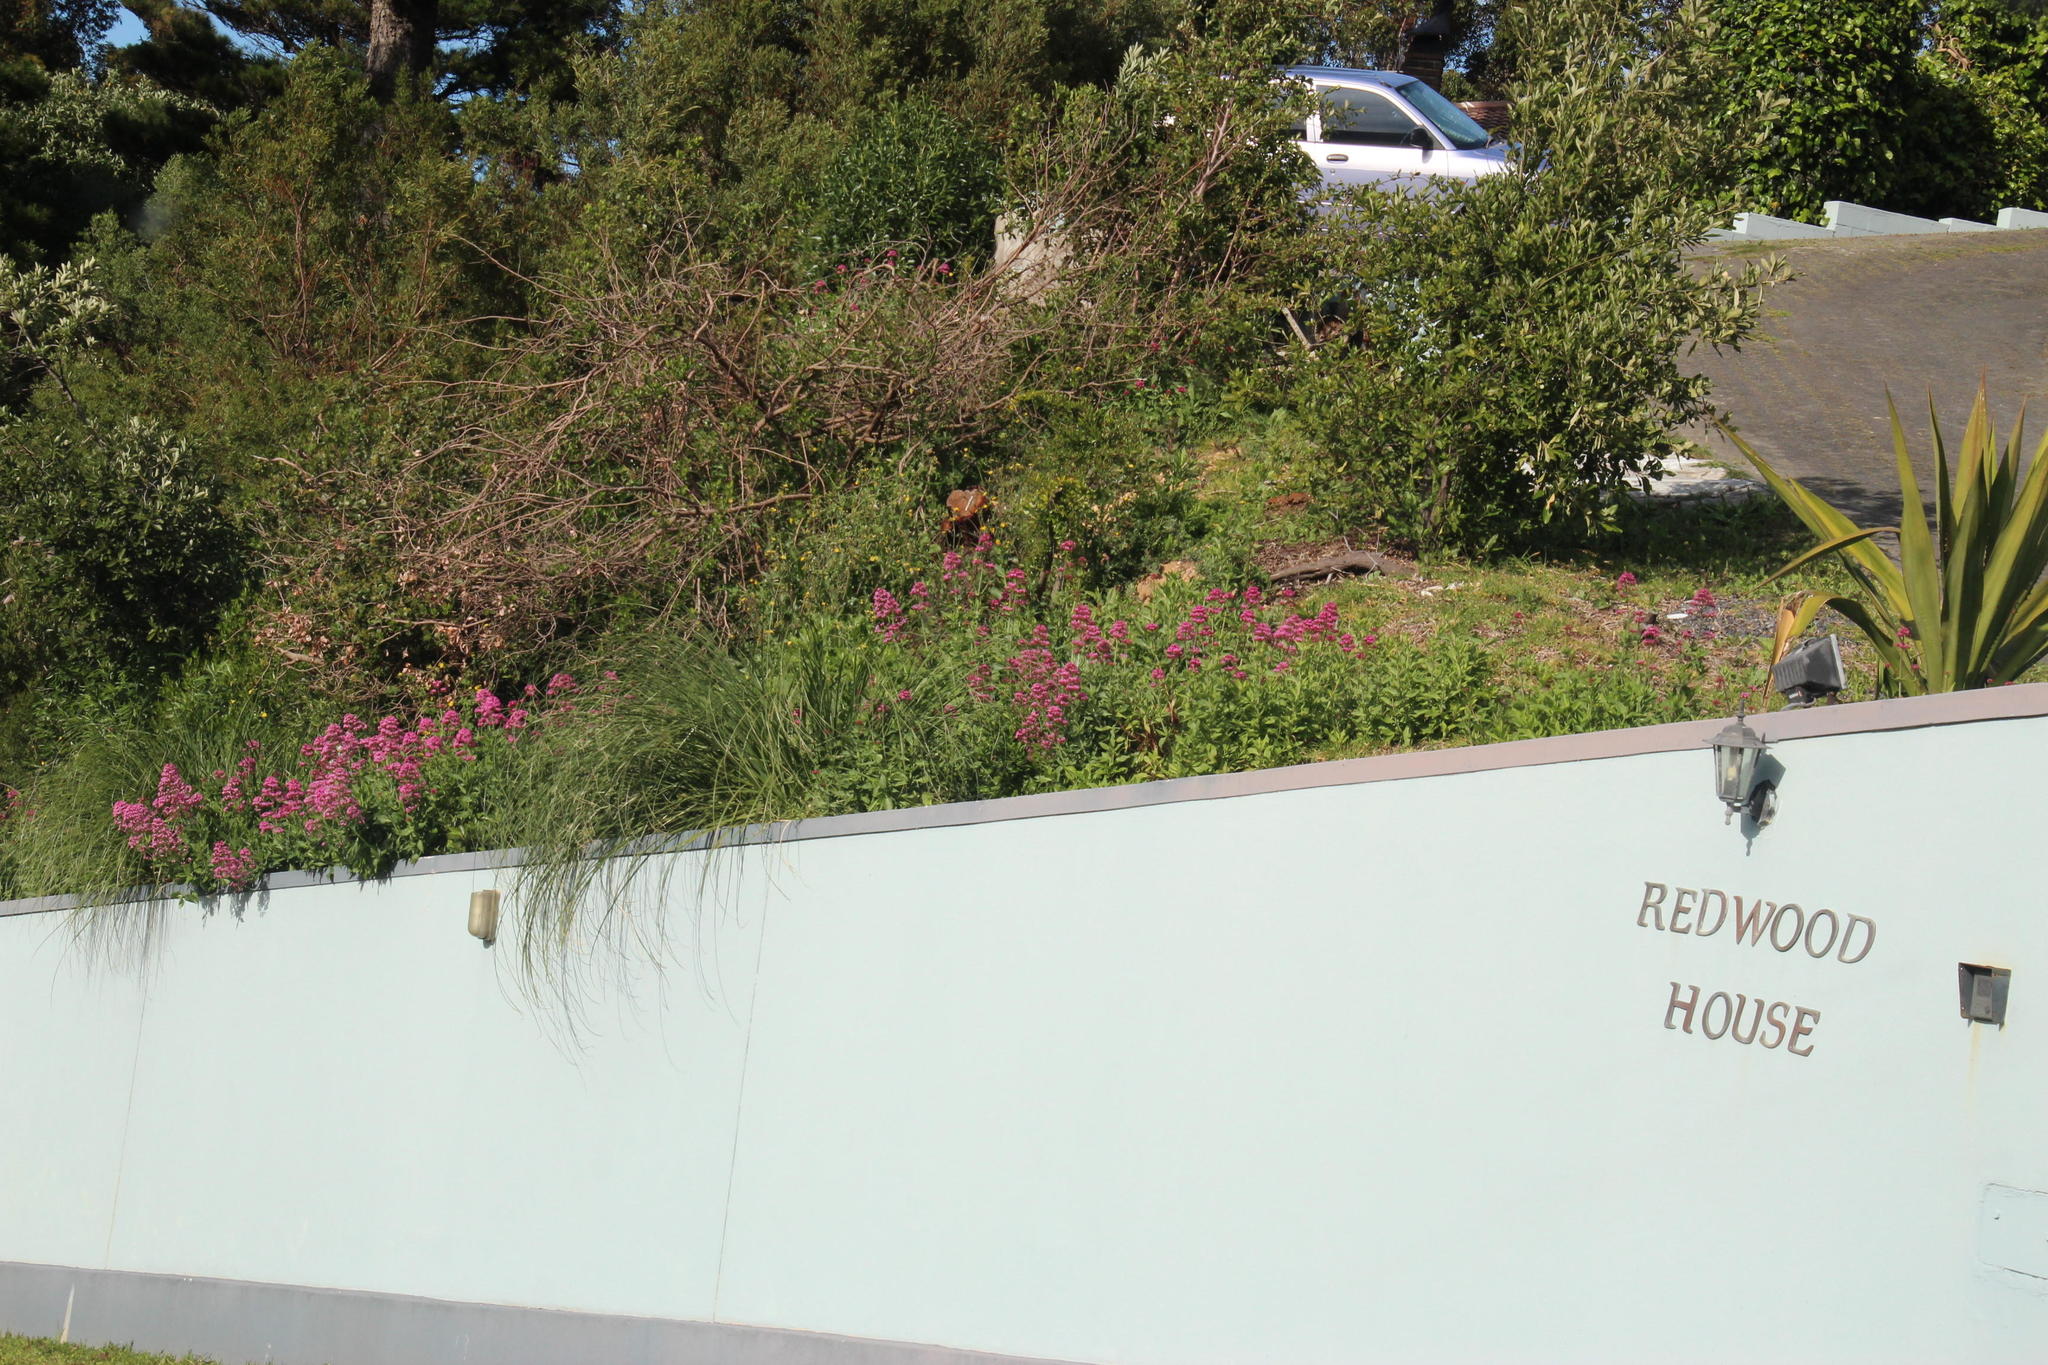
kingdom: Plantae
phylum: Tracheophyta
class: Magnoliopsida
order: Dipsacales
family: Caprifoliaceae
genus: Centranthus
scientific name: Centranthus ruber
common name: Red valerian
